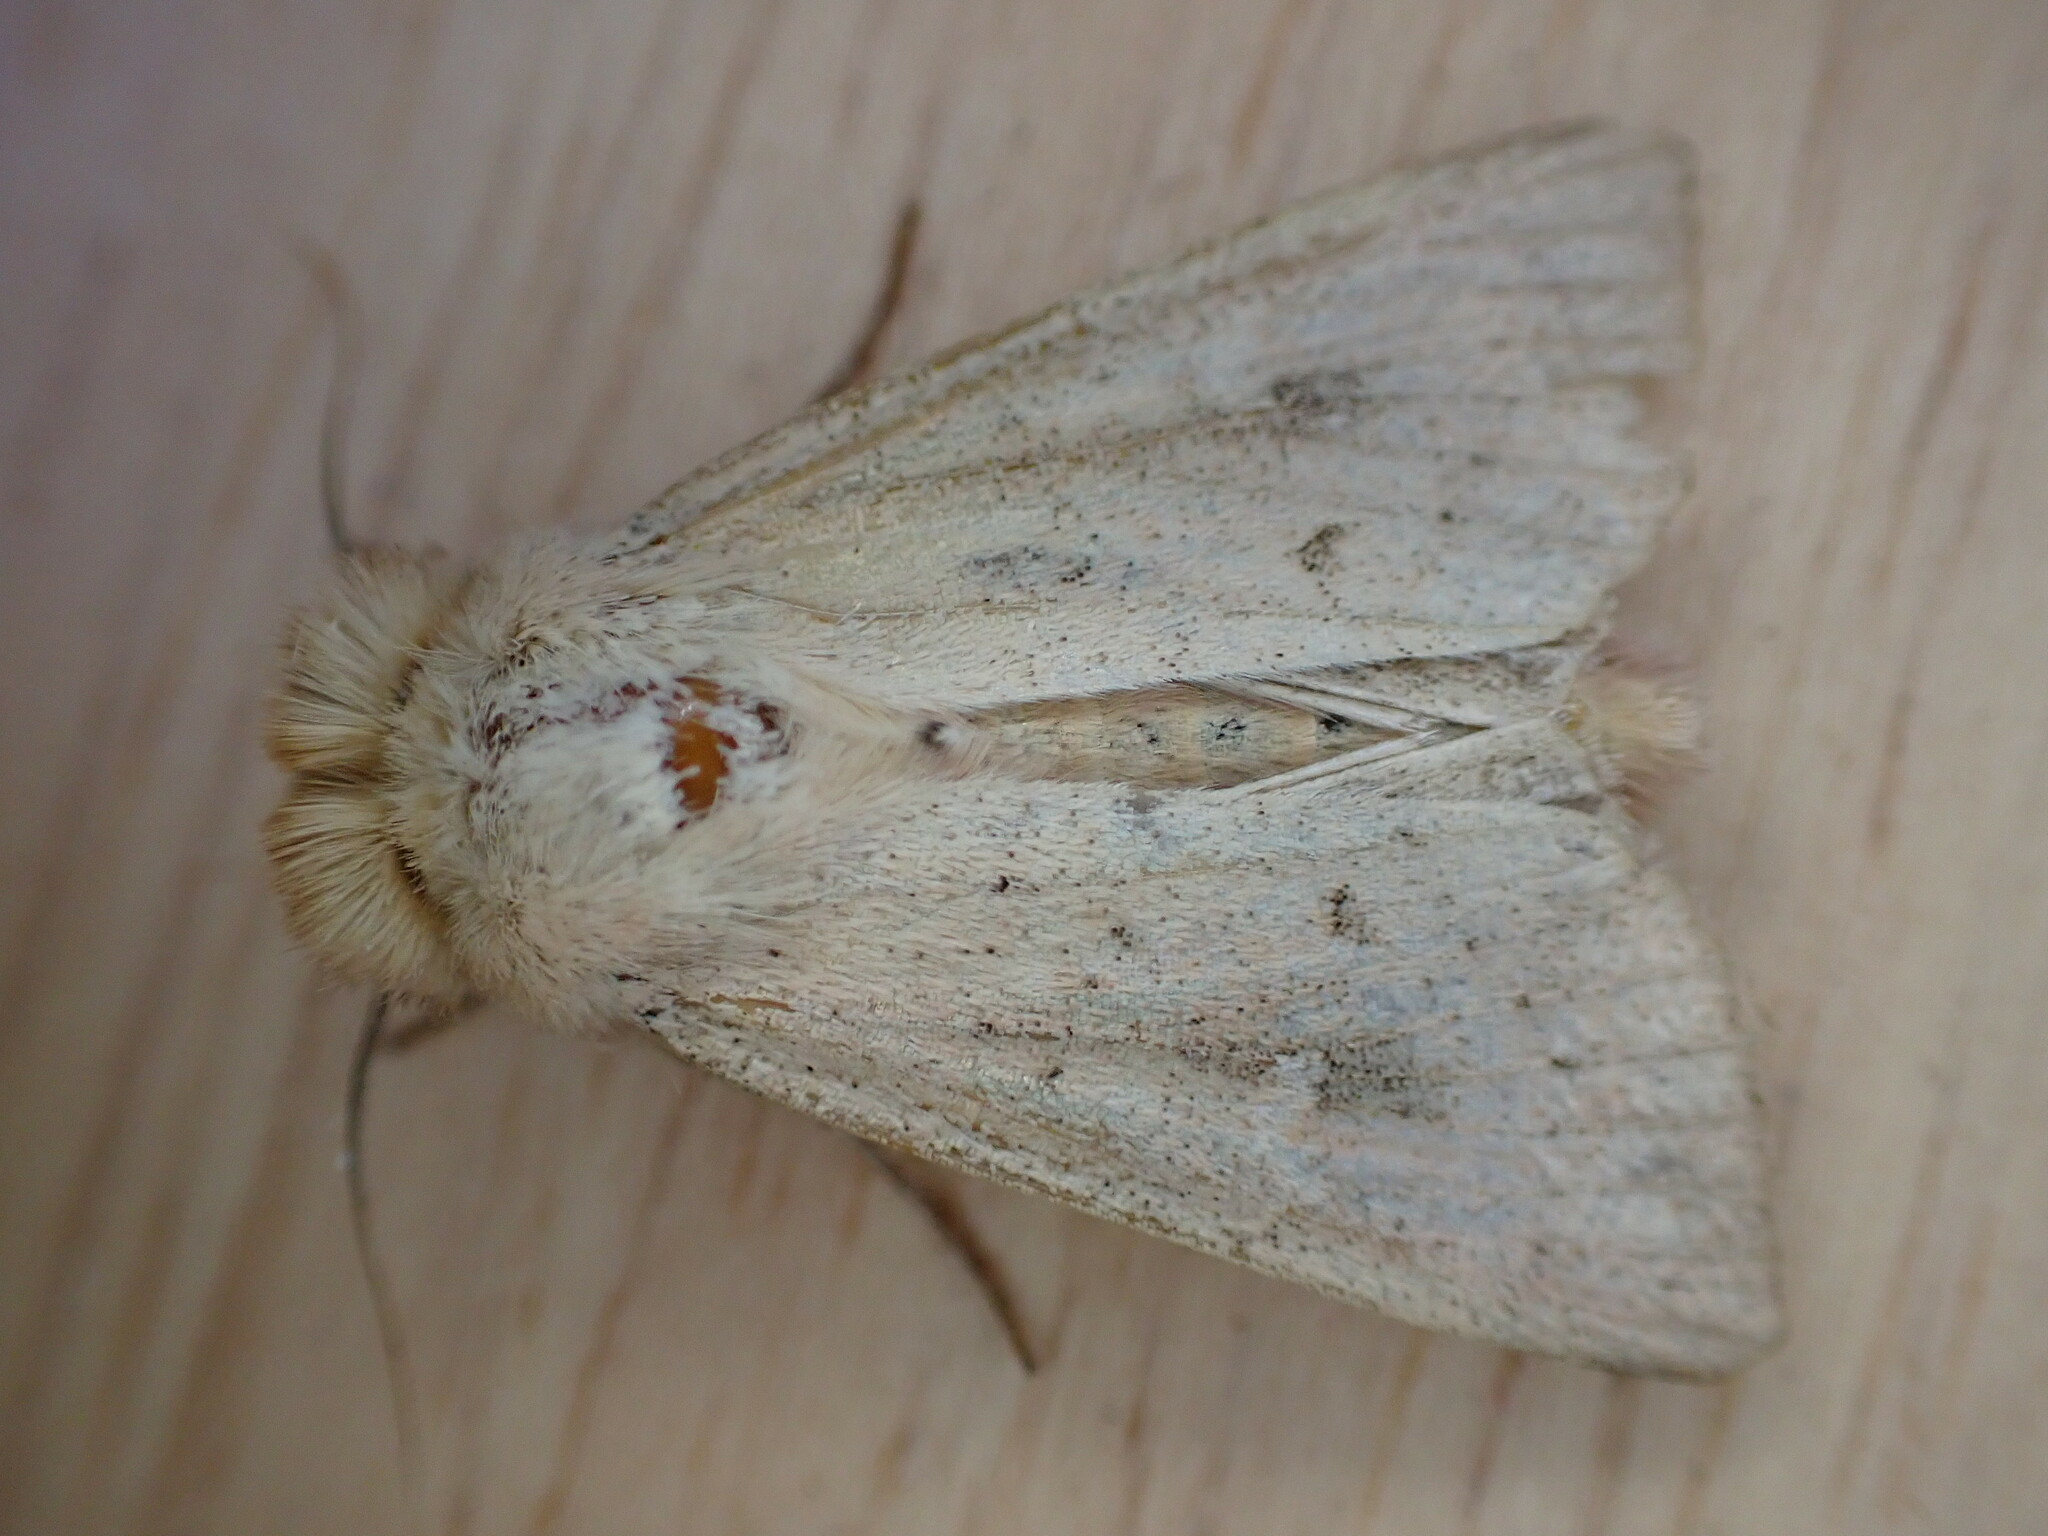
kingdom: Animalia
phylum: Arthropoda
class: Insecta
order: Lepidoptera
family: Noctuidae
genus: Mythimna
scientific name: Mythimna ferrago
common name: Clay
